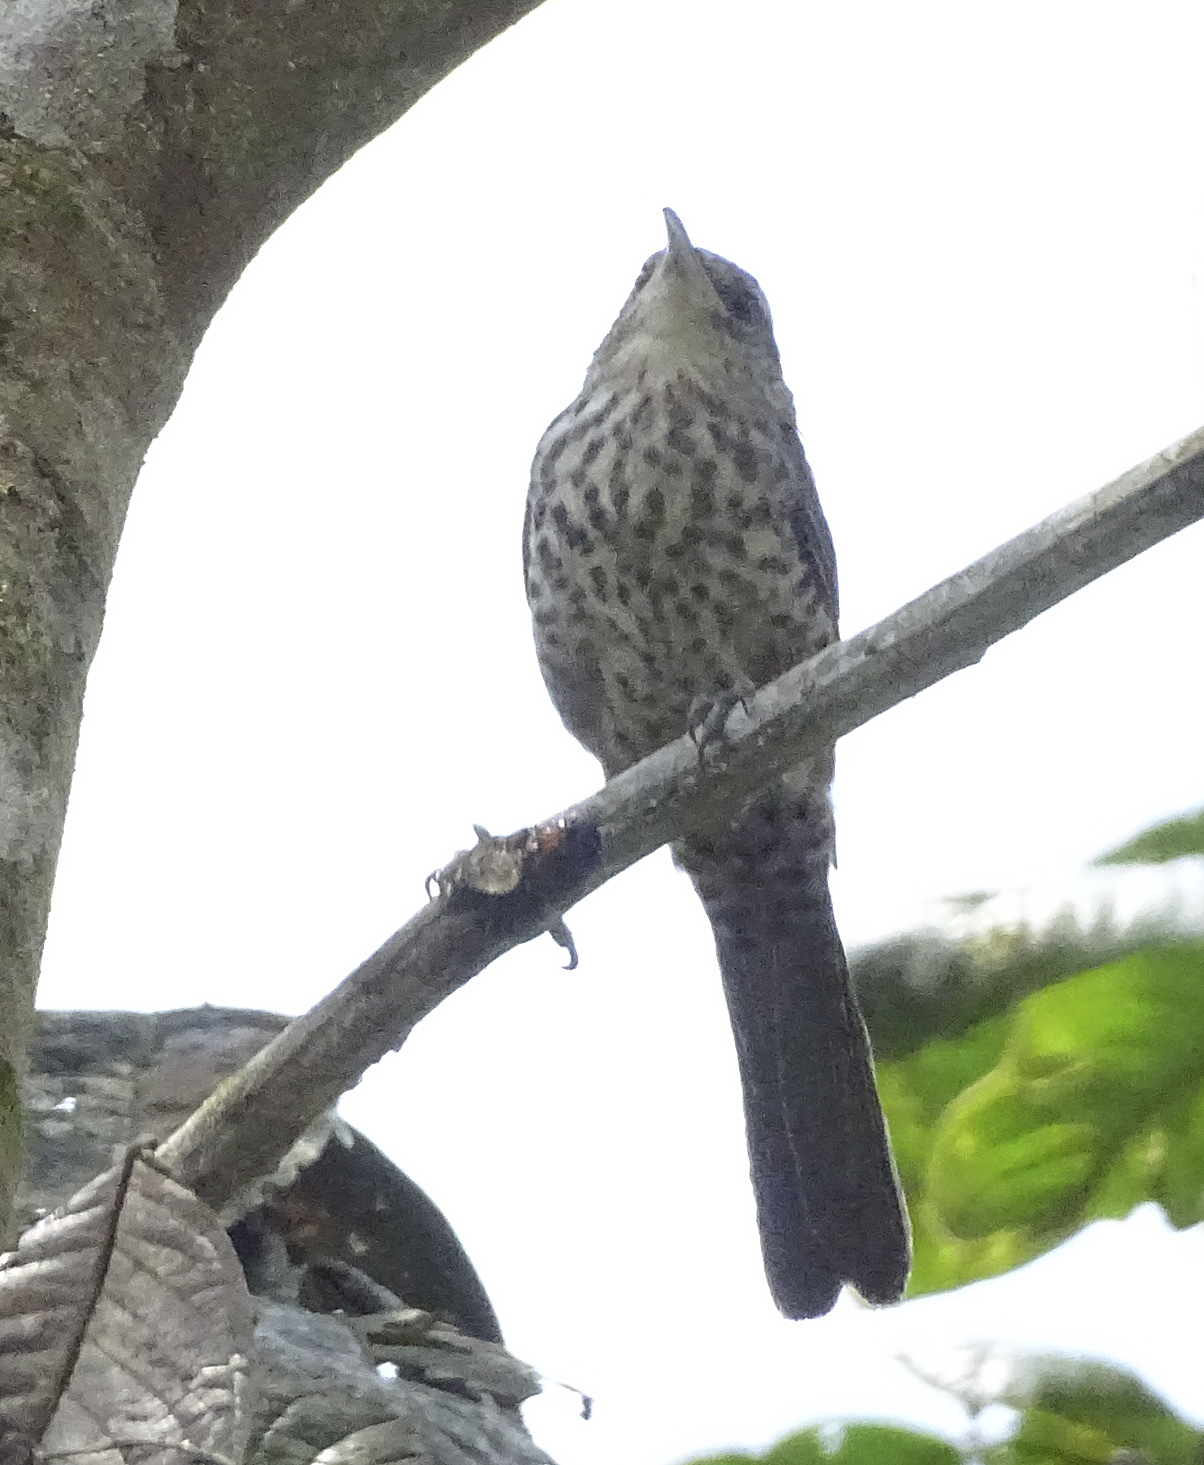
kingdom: Animalia
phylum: Chordata
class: Aves
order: Passeriformes
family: Troglodytidae
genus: Campylorhynchus
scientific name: Campylorhynchus turdinus
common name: Thrush-like wren
